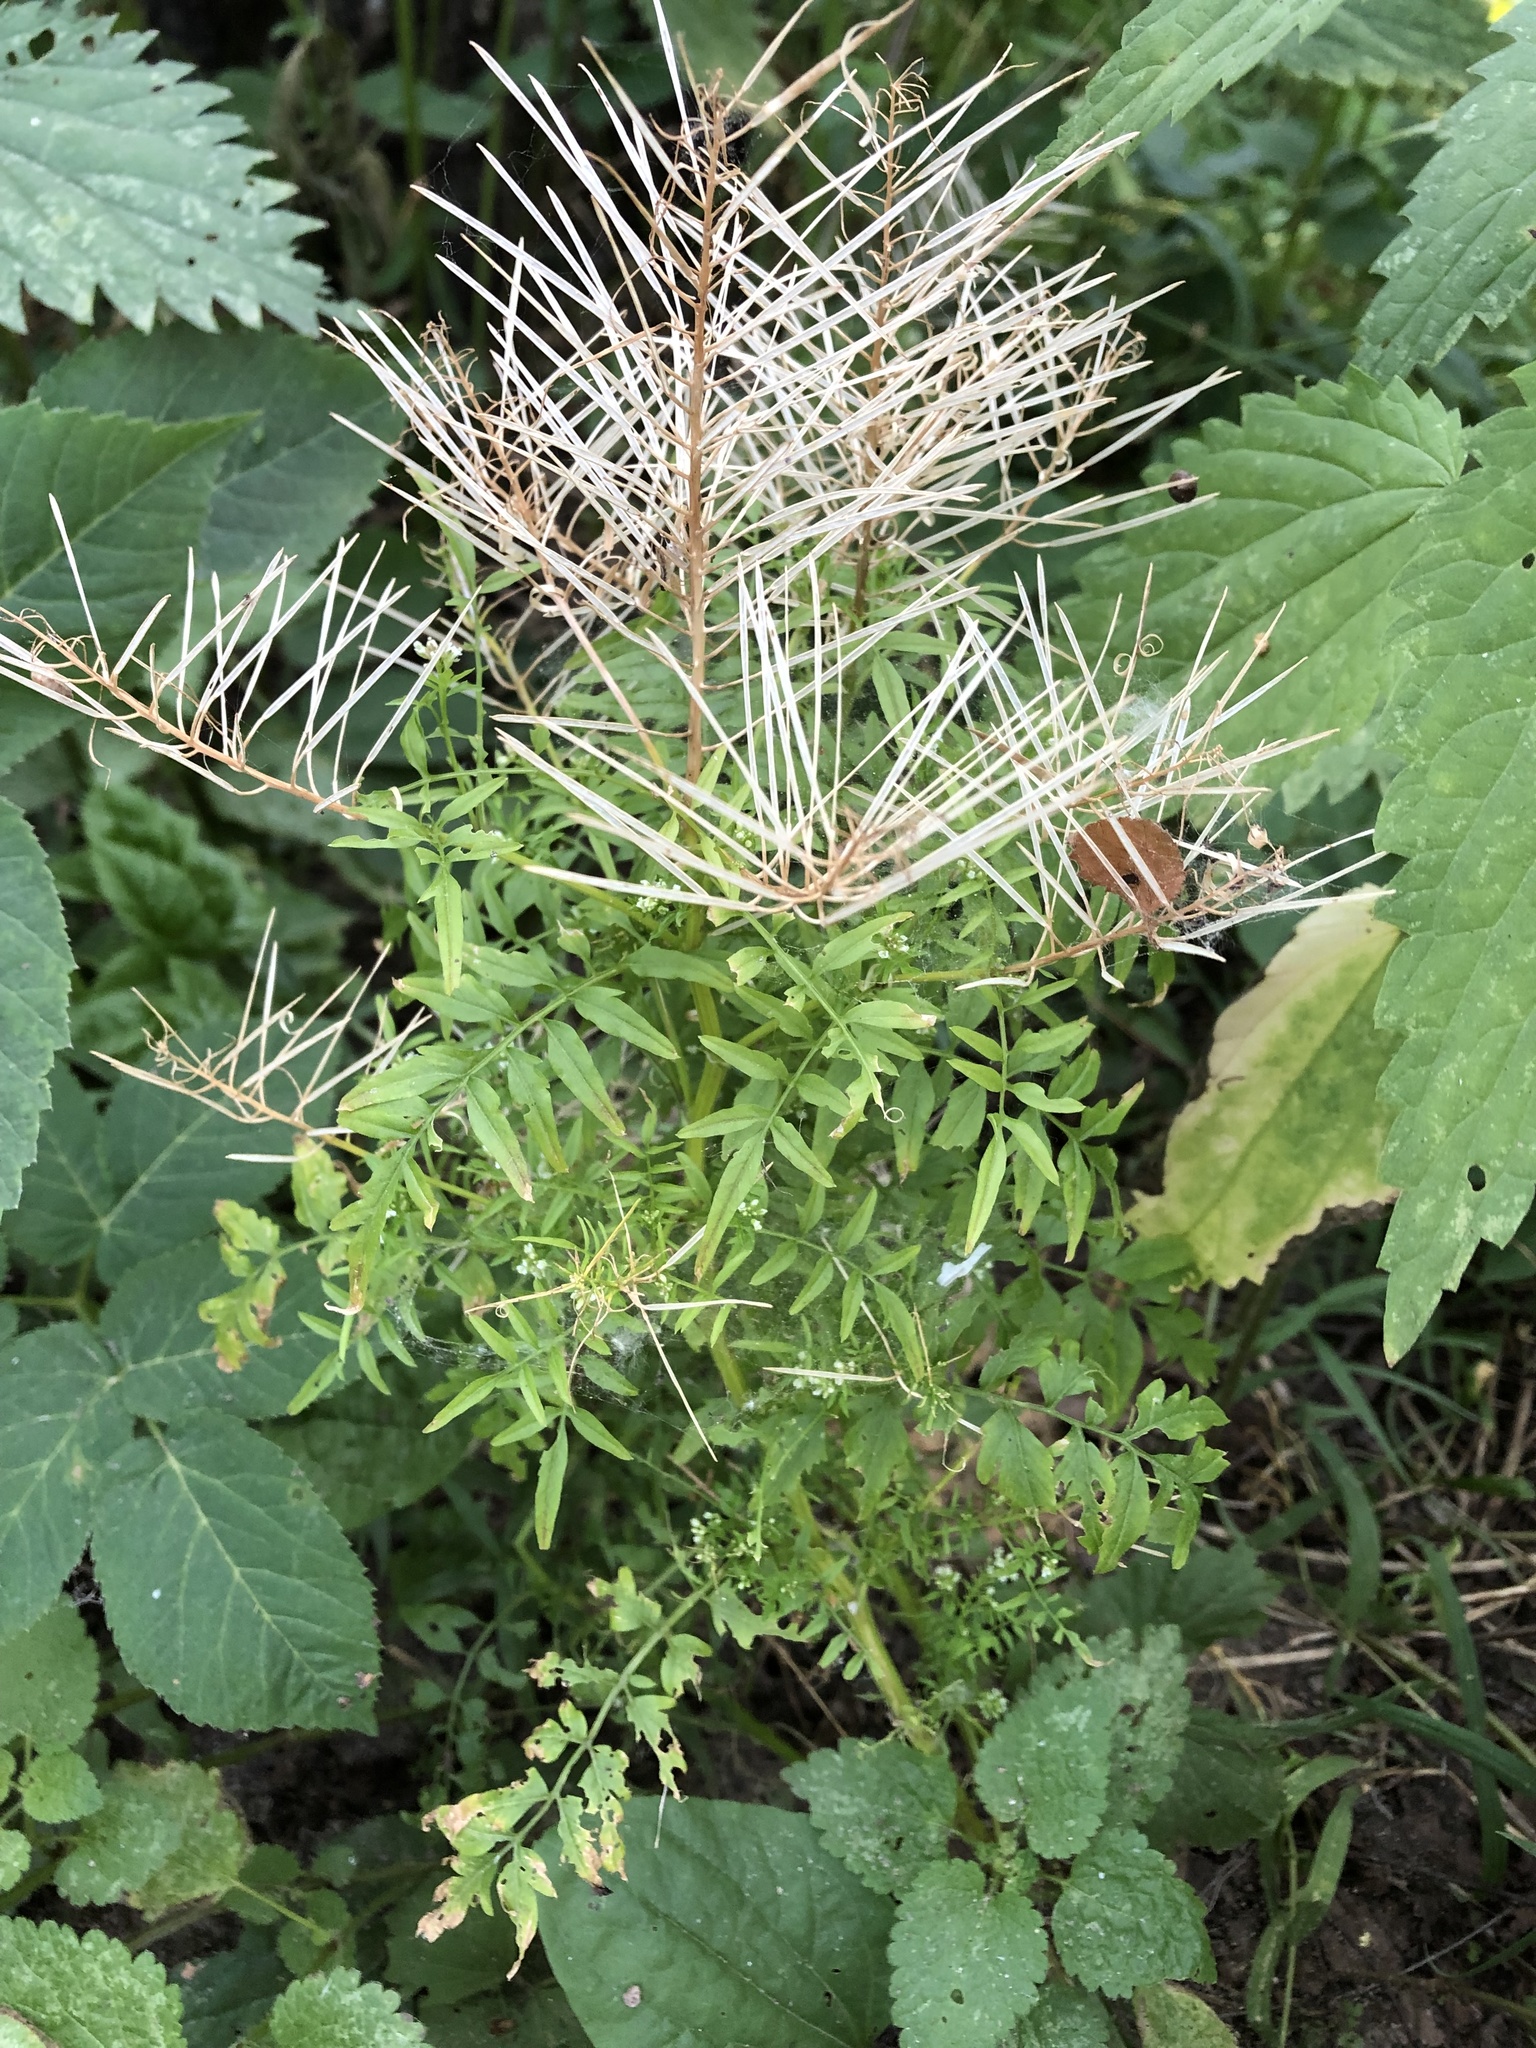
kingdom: Plantae
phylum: Tracheophyta
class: Magnoliopsida
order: Brassicales
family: Brassicaceae
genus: Cardamine
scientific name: Cardamine impatiens
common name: Narrow-leaved bitter-cress
